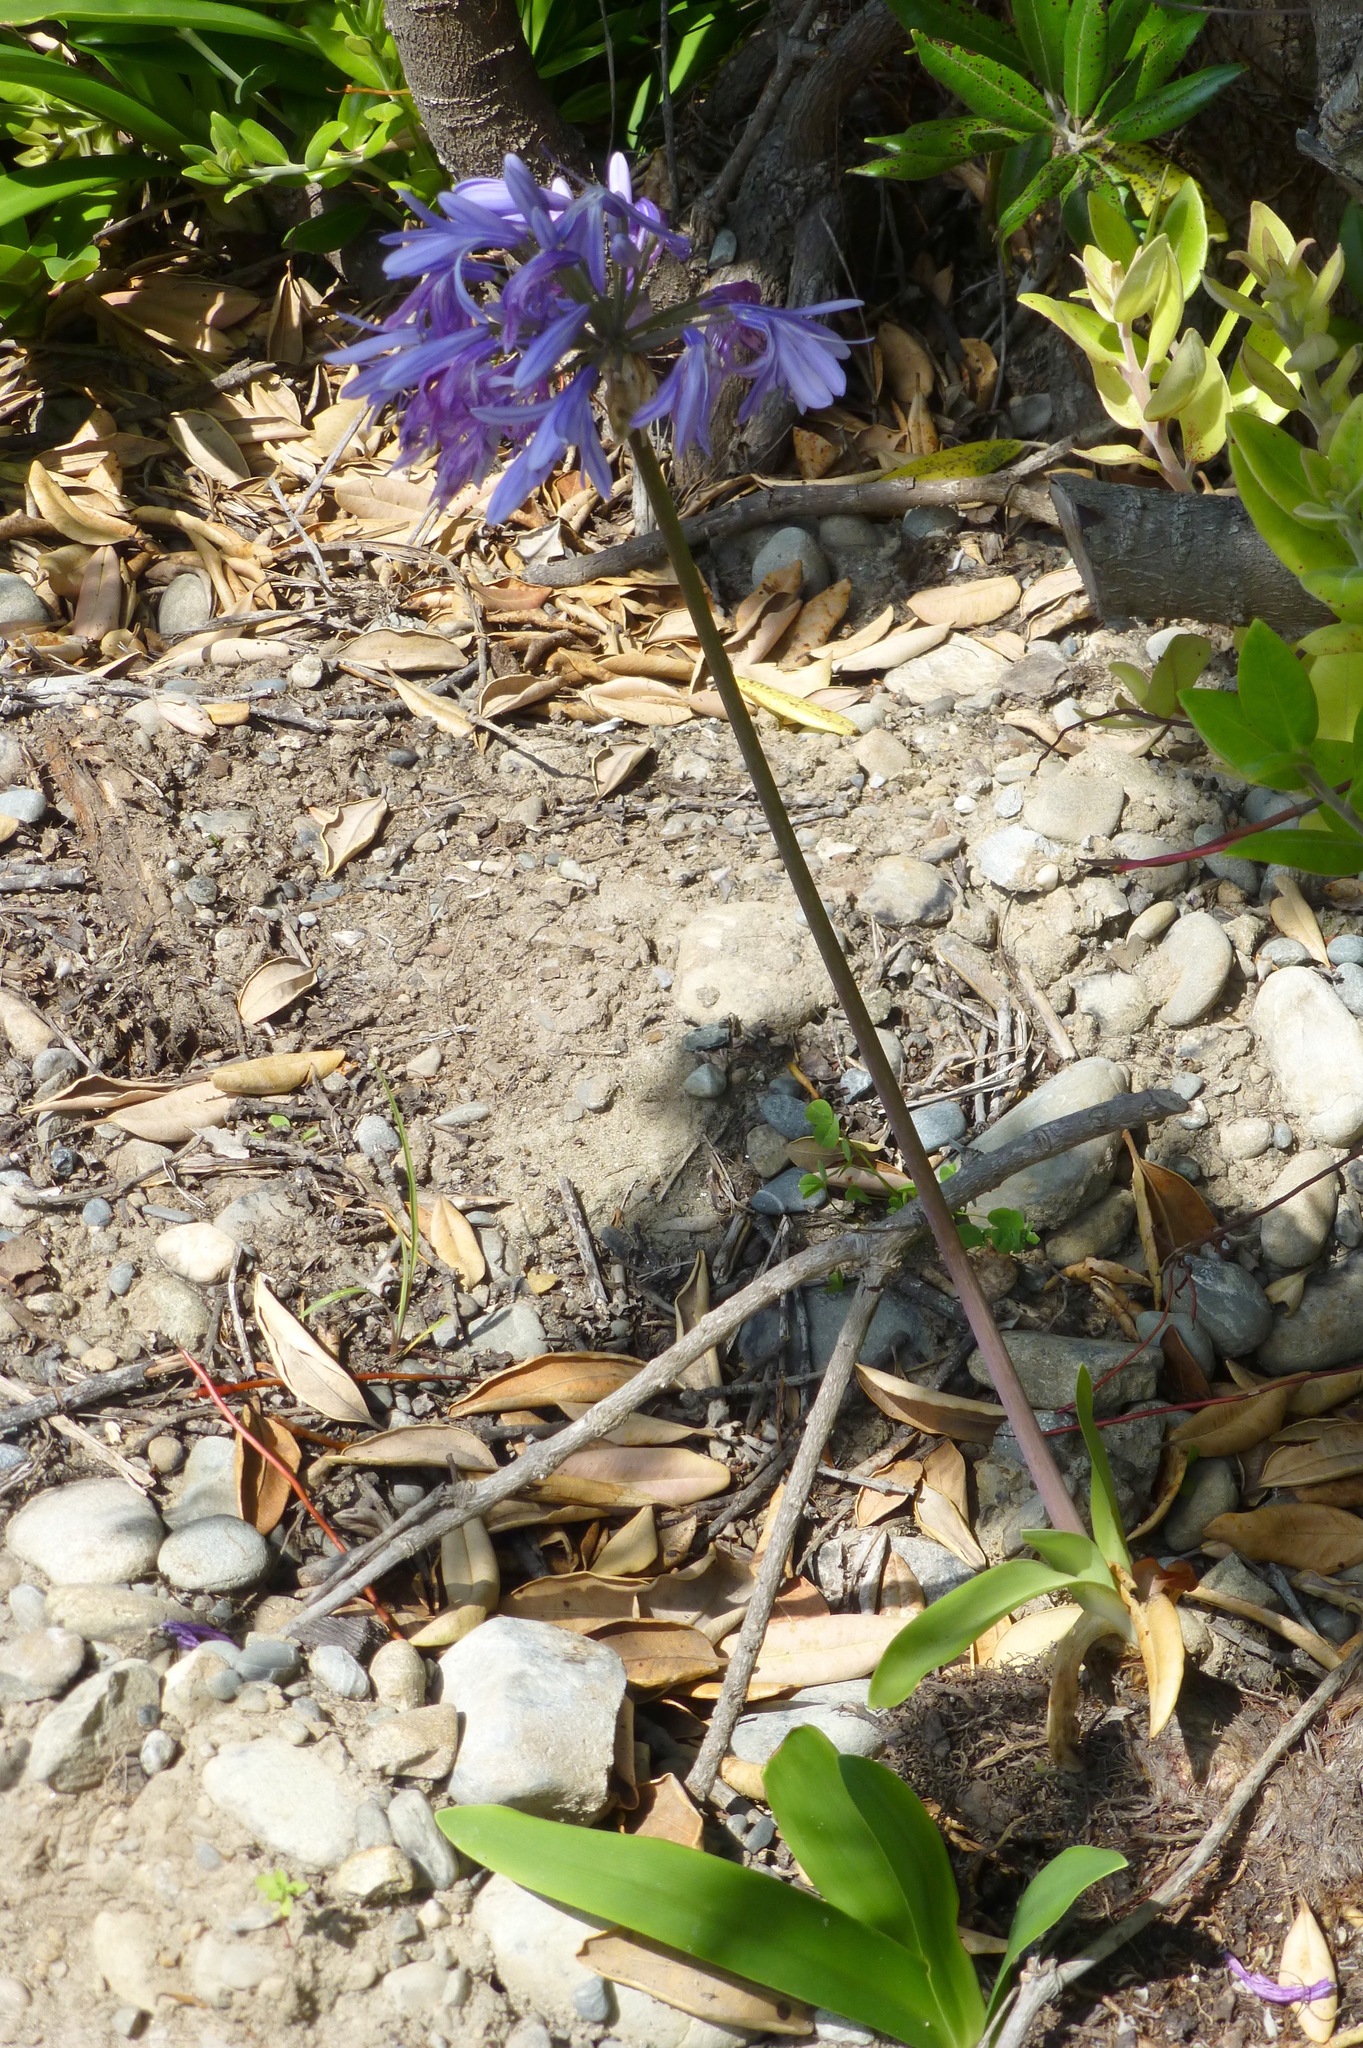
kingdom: Plantae
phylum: Tracheophyta
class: Liliopsida
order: Asparagales
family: Amaryllidaceae
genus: Agapanthus
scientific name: Agapanthus praecox
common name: African-lily
